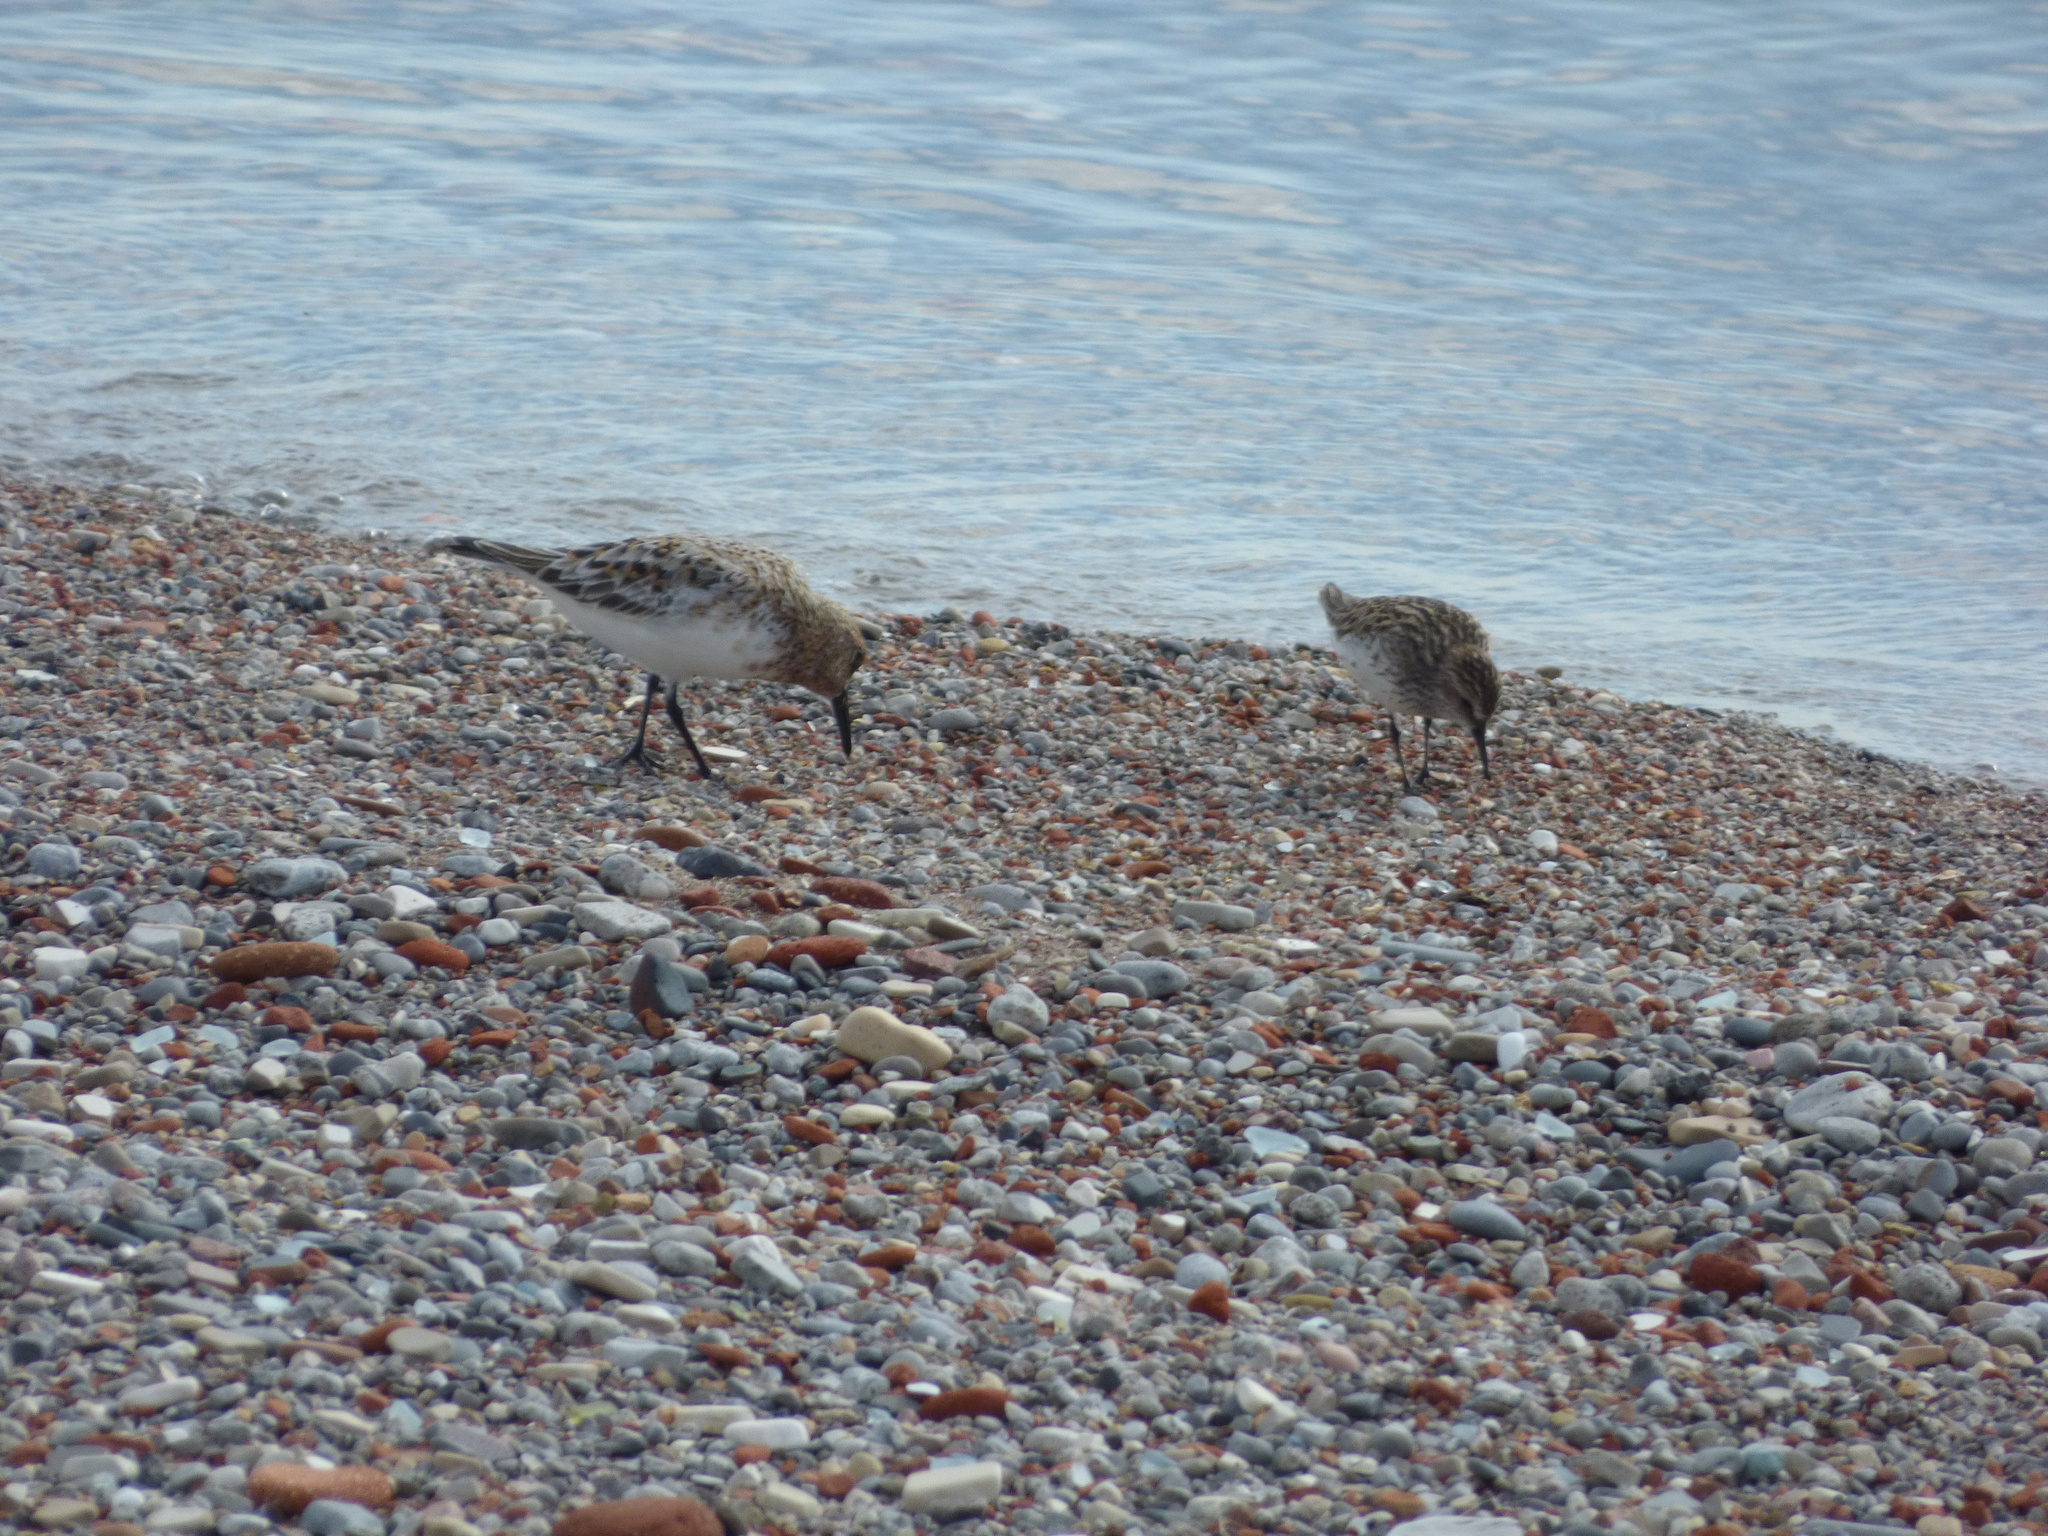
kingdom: Animalia
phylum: Chordata
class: Aves
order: Charadriiformes
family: Scolopacidae
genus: Calidris
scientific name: Calidris alba
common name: Sanderling
